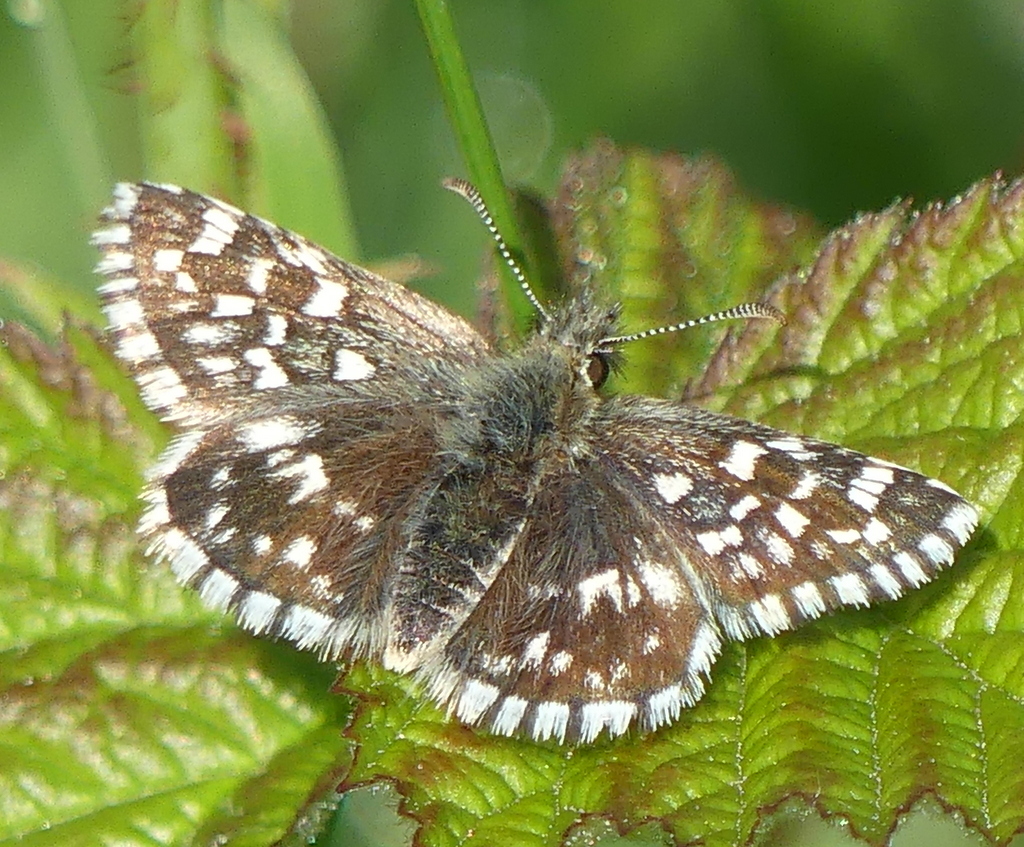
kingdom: Animalia
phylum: Arthropoda
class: Insecta
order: Lepidoptera
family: Hesperiidae
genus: Pyrgus
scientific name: Pyrgus malvae
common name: Grizzled skipper
